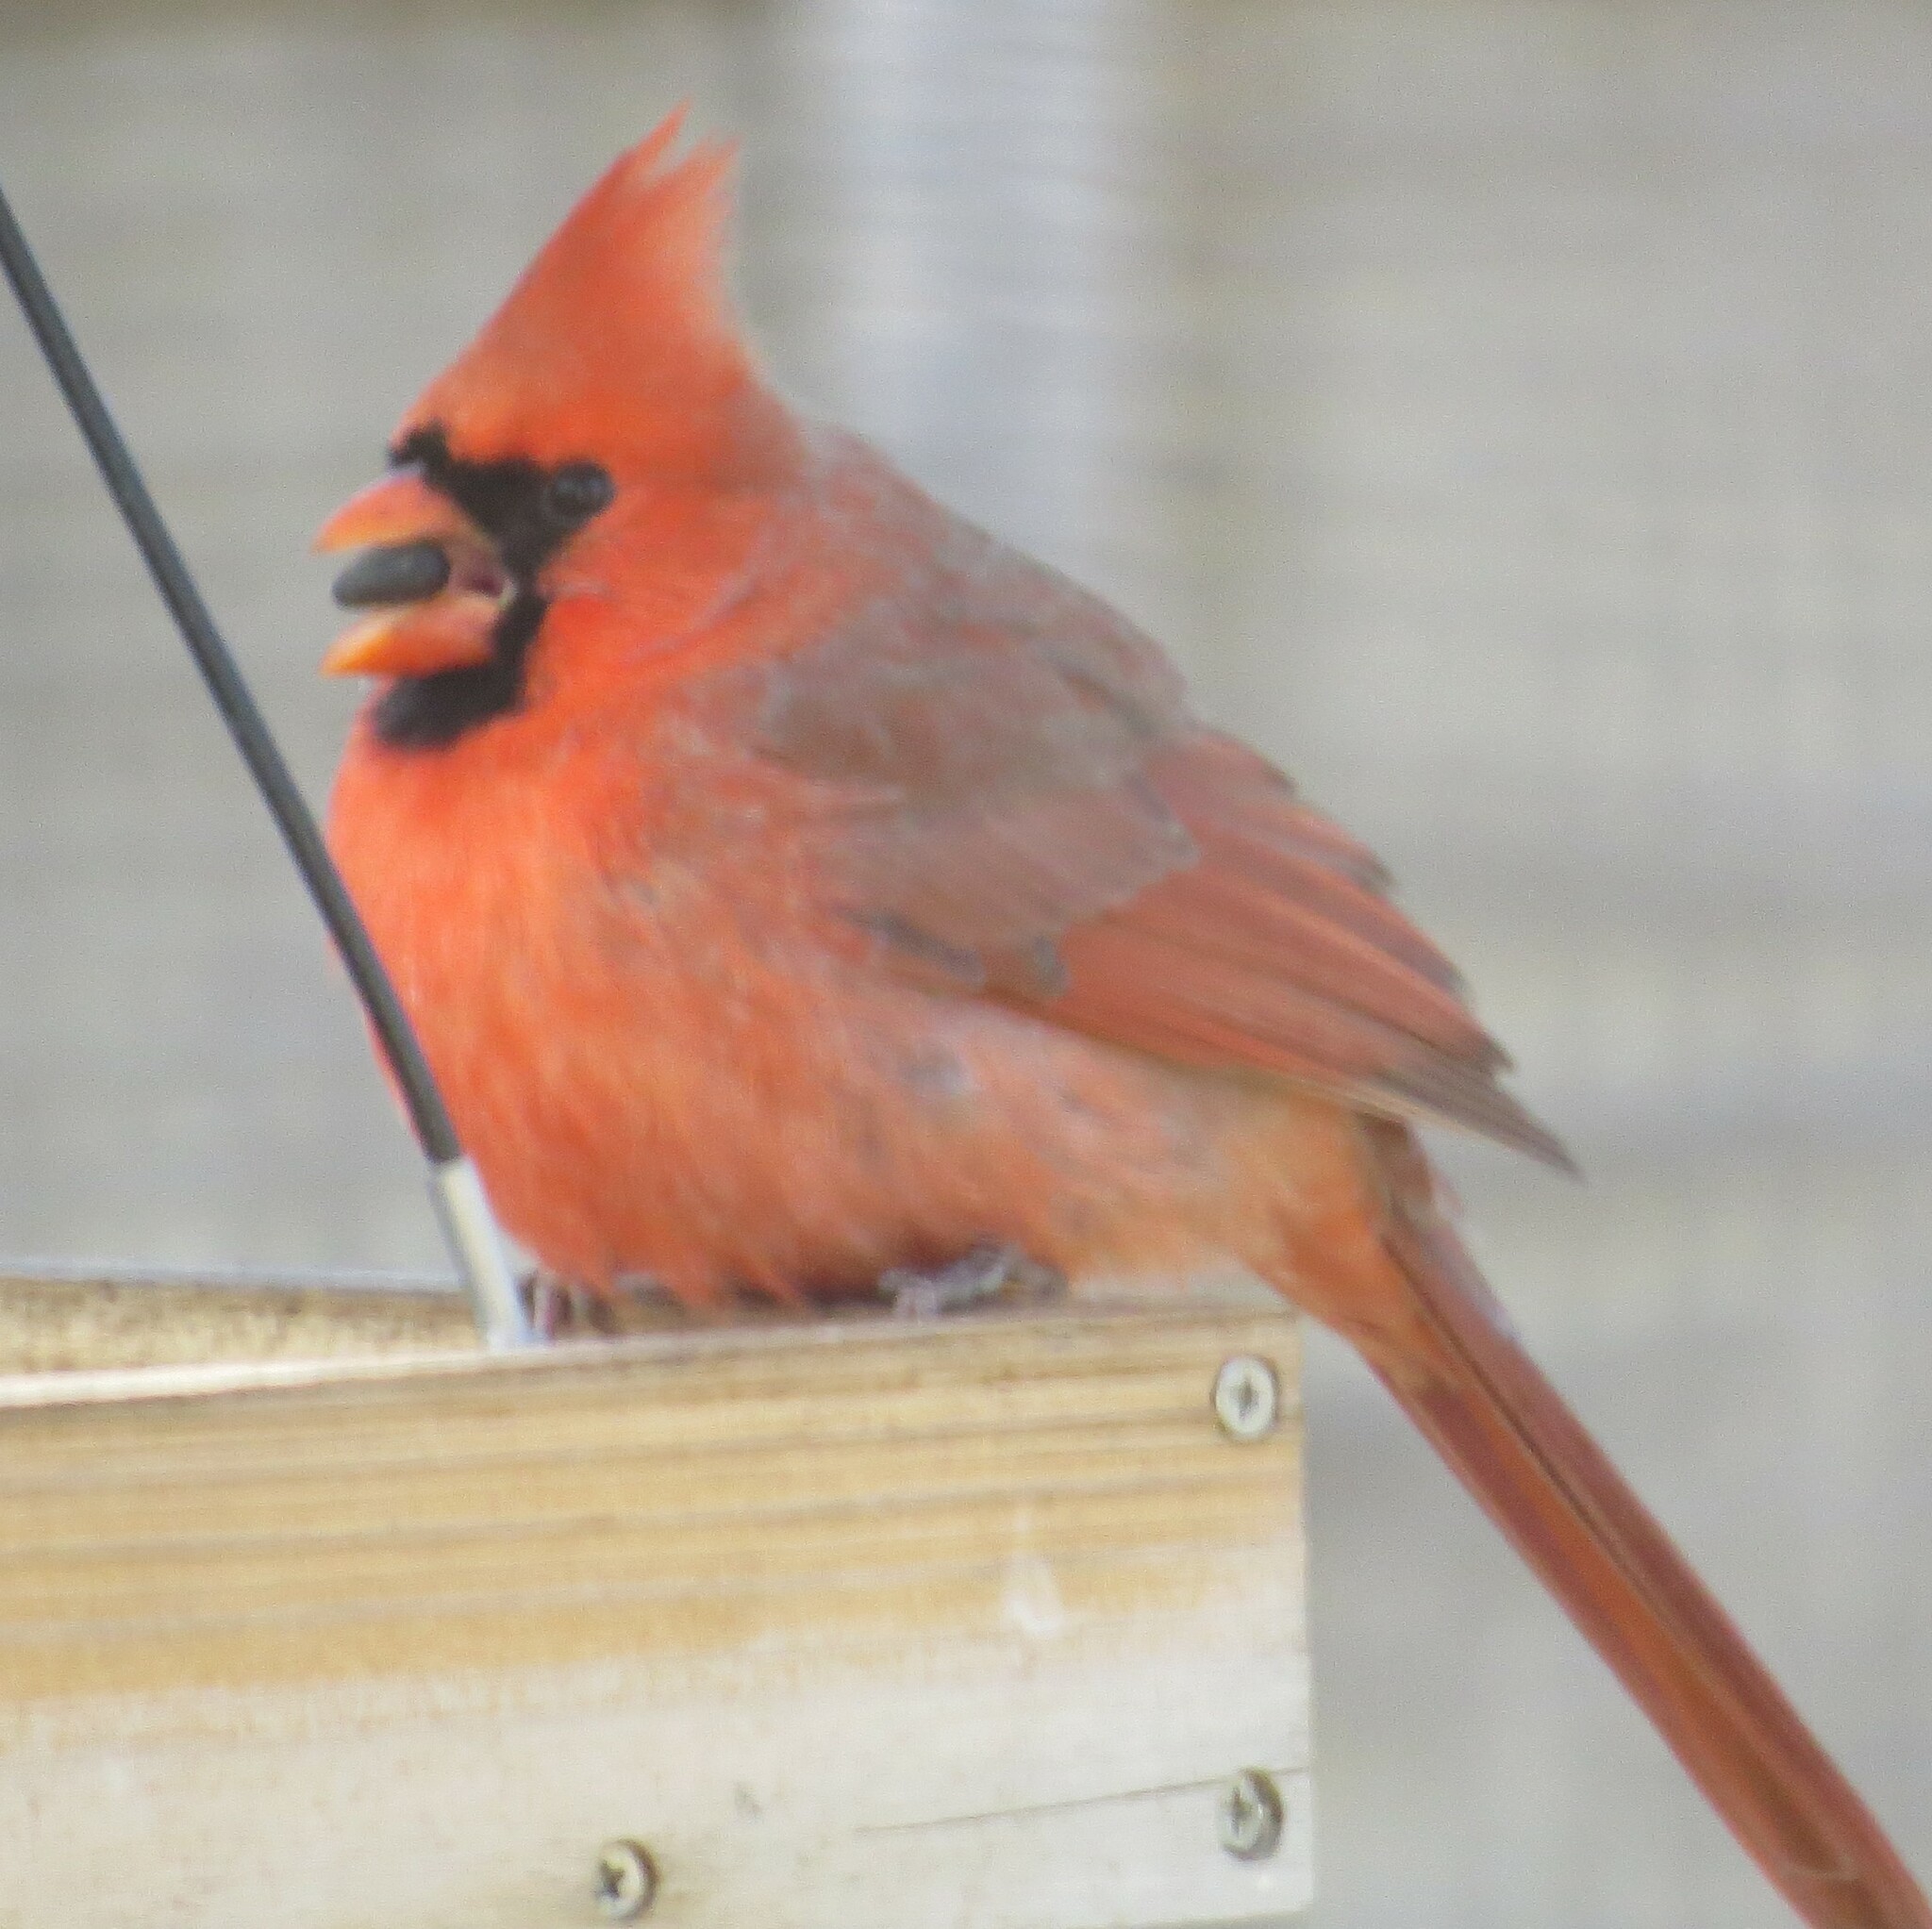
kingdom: Animalia
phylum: Chordata
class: Aves
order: Passeriformes
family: Cardinalidae
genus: Cardinalis
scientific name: Cardinalis cardinalis
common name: Northern cardinal
